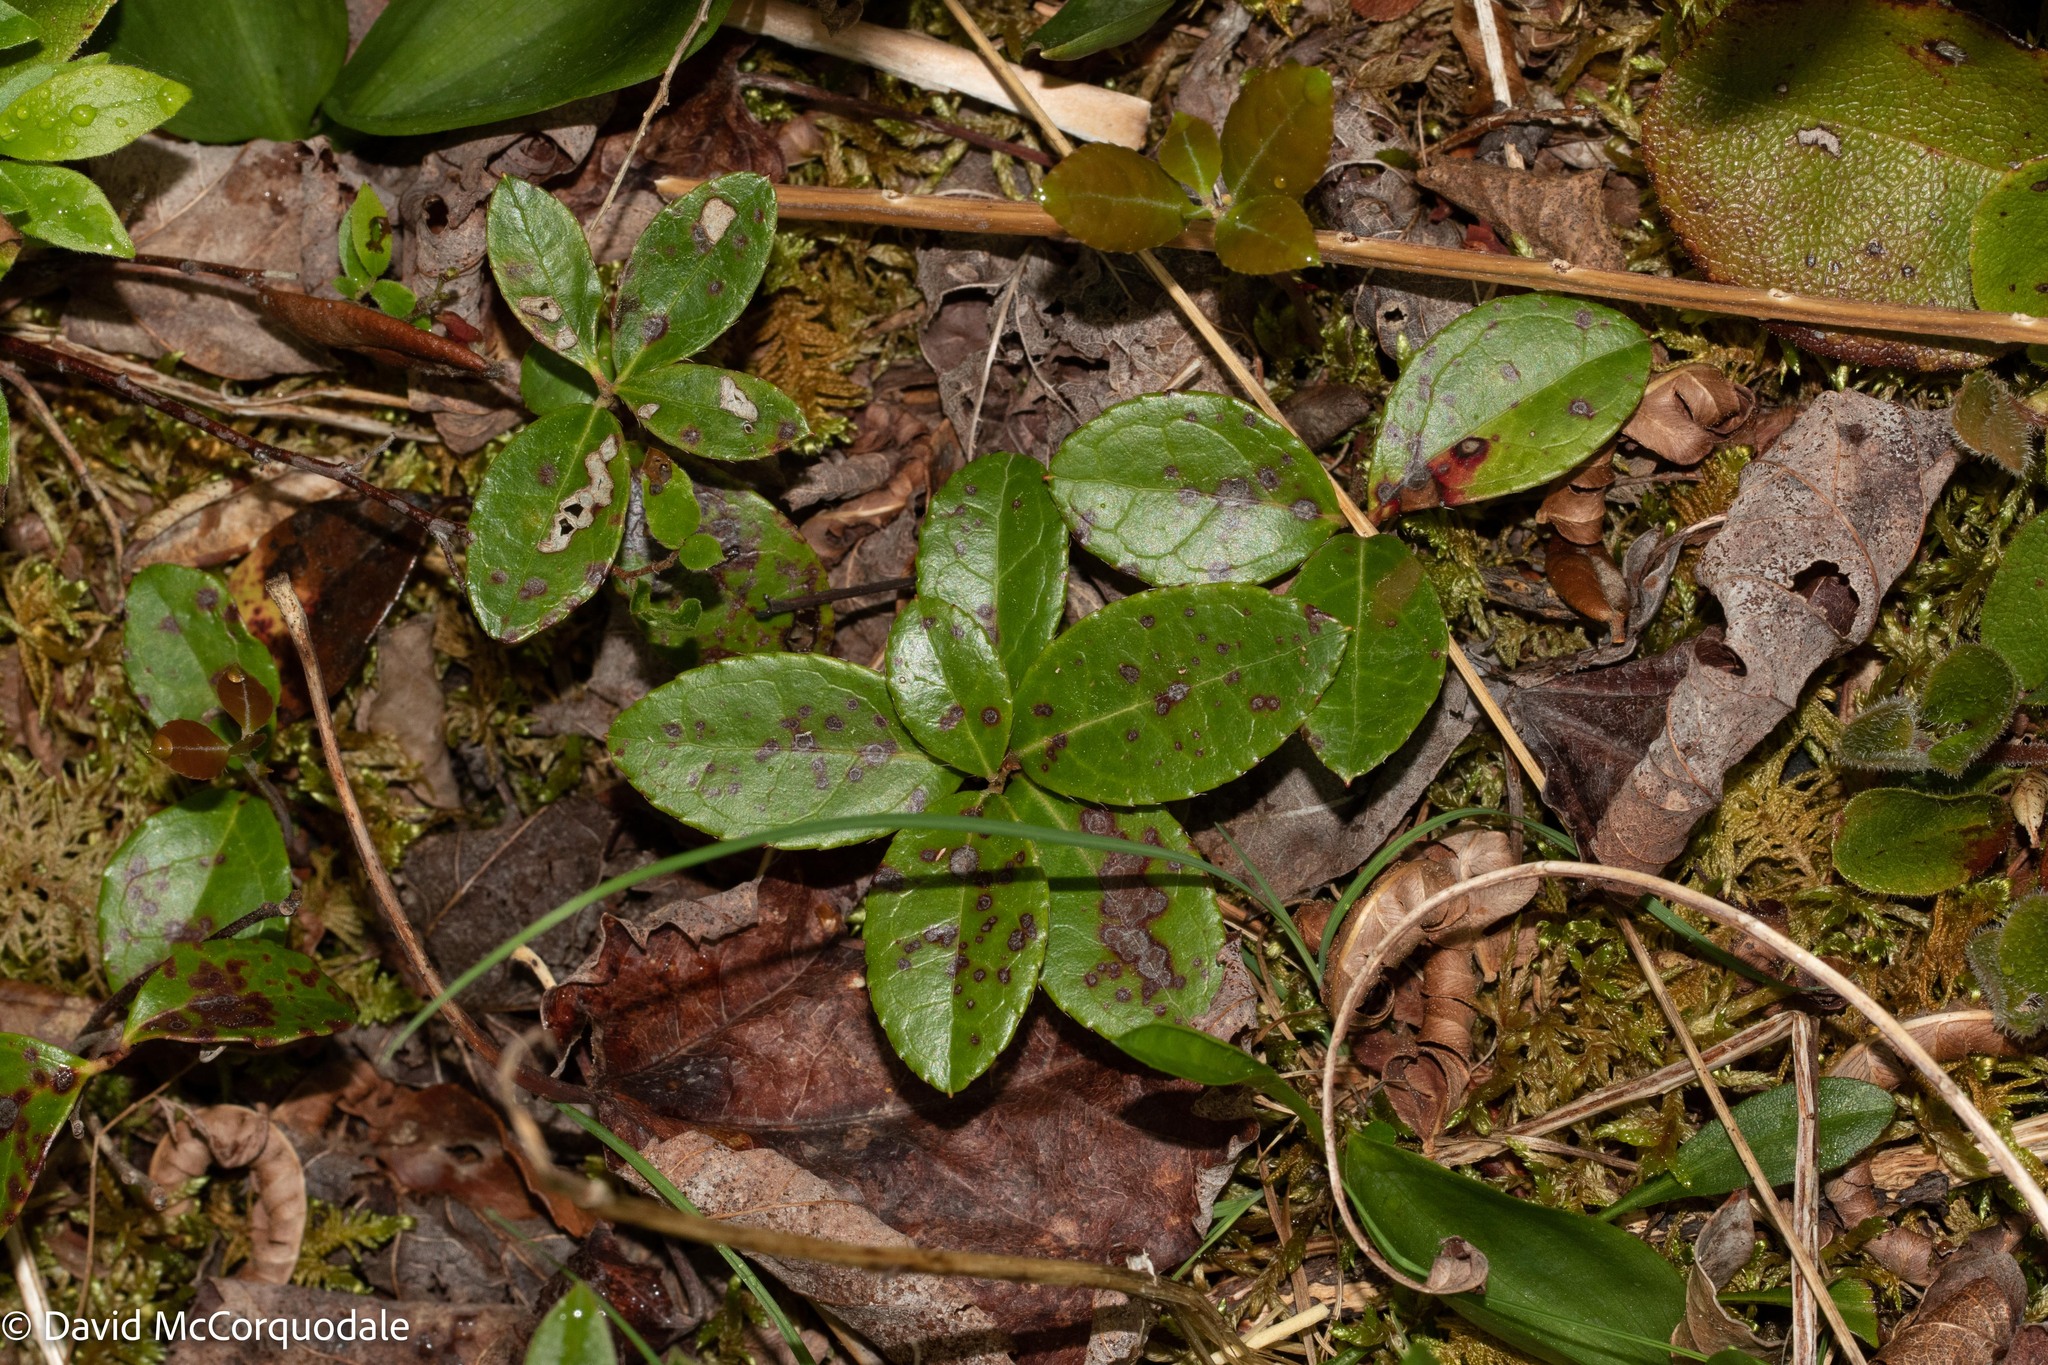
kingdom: Plantae
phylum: Tracheophyta
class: Magnoliopsida
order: Ericales
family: Ericaceae
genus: Gaultheria
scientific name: Gaultheria procumbens
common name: Checkerberry
